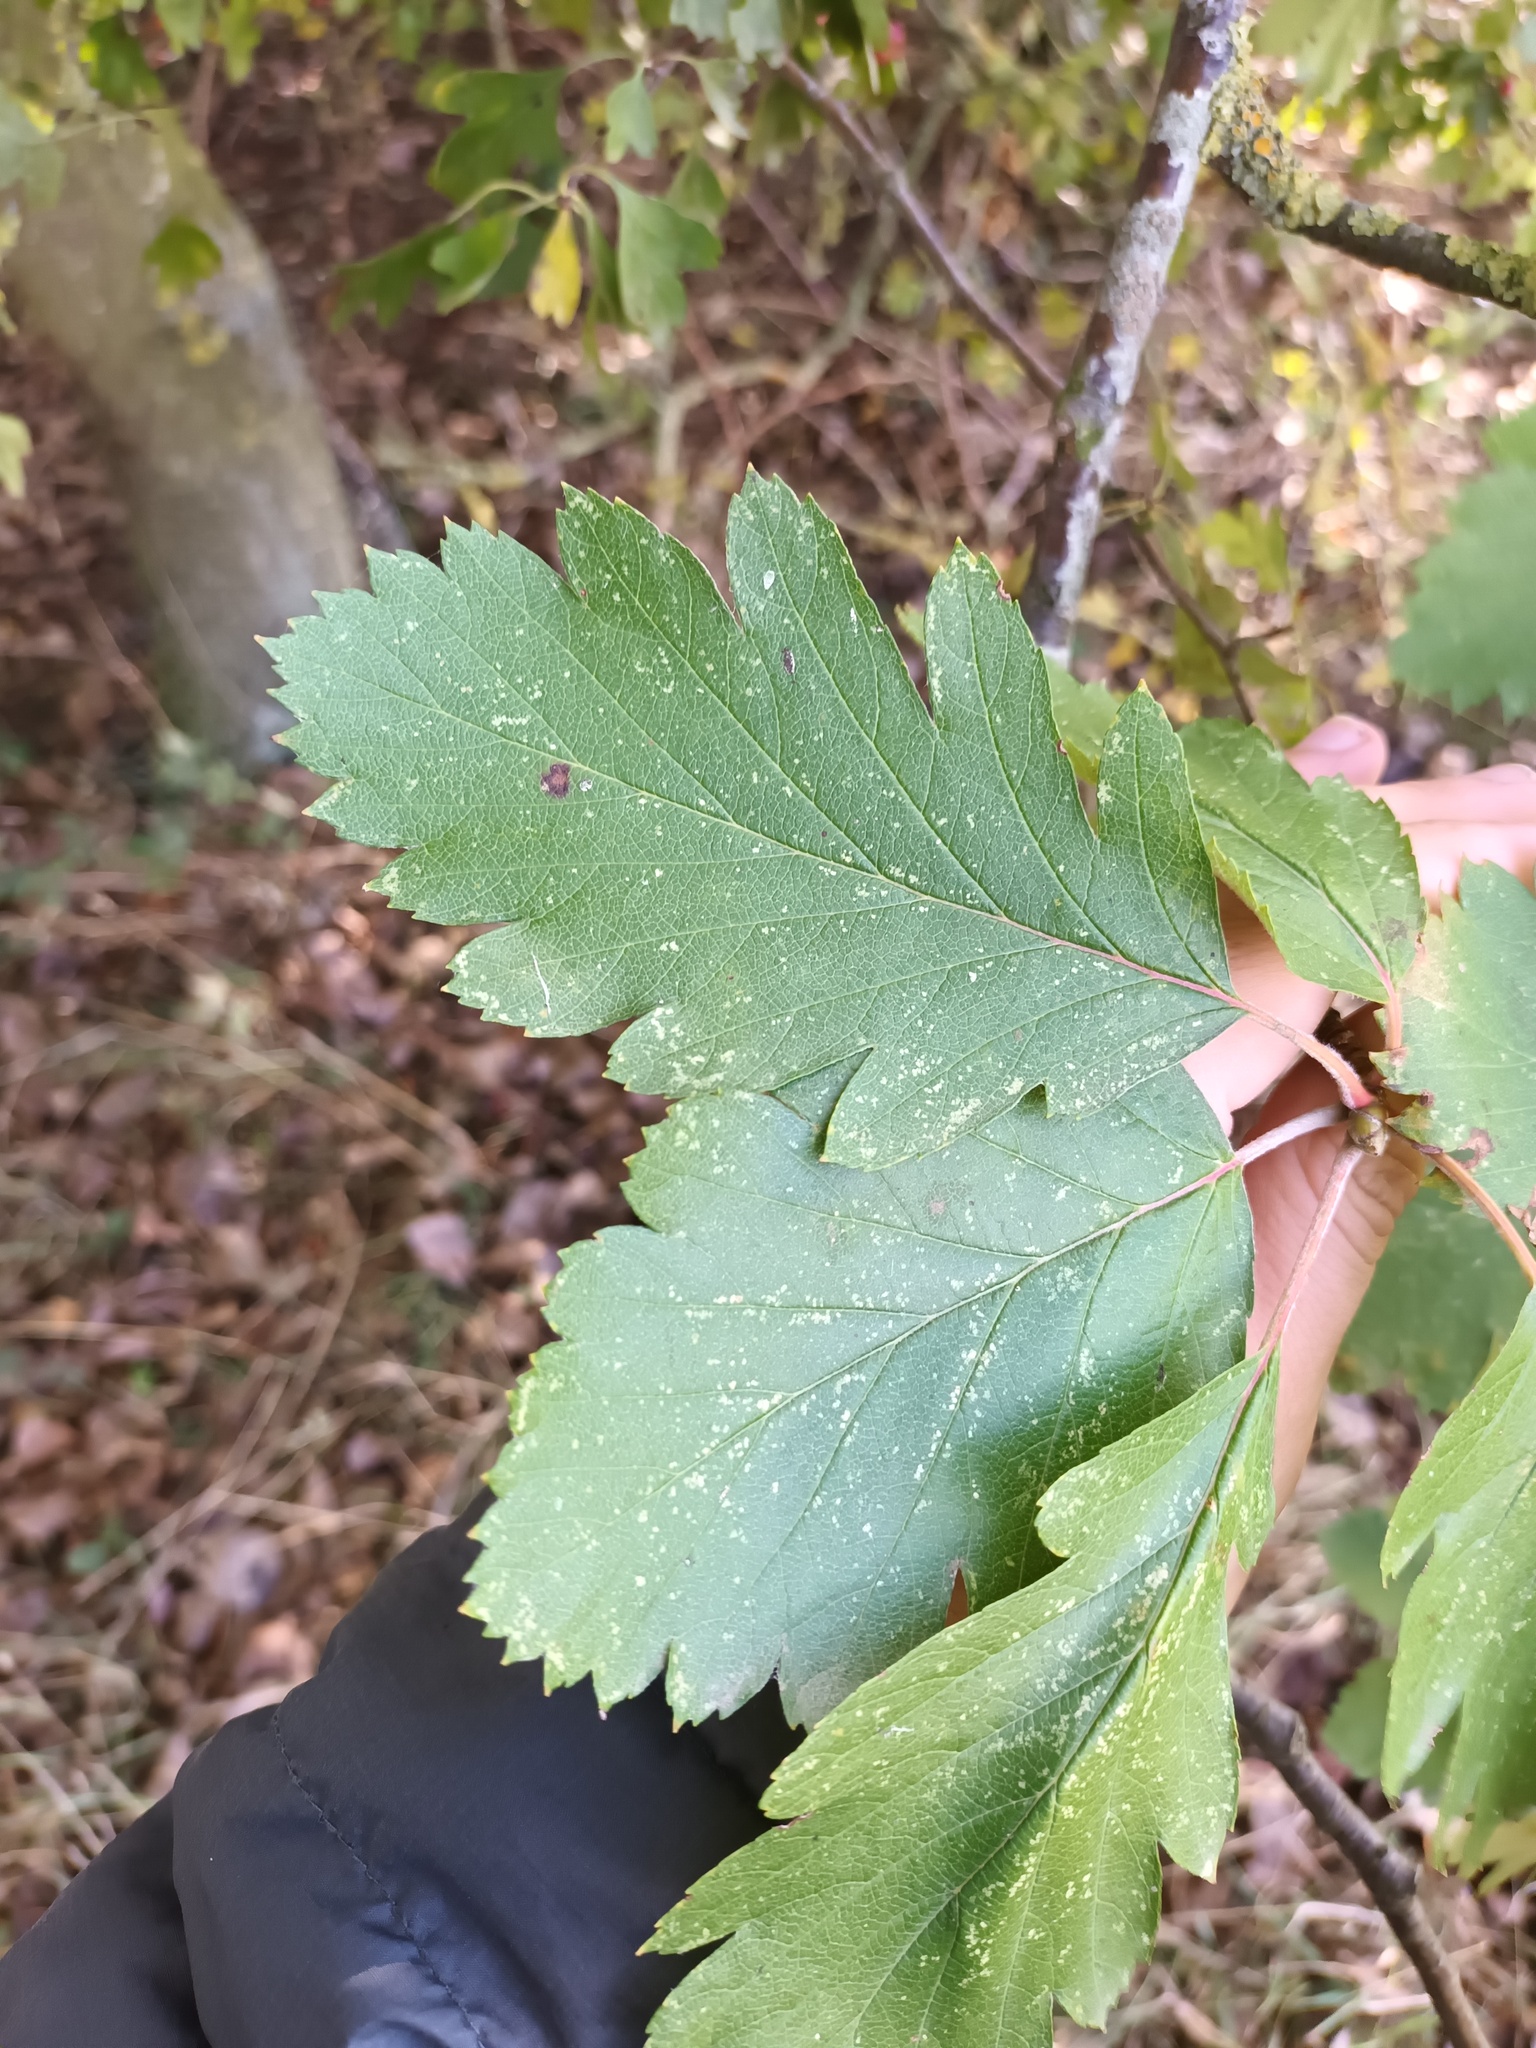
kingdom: Plantae
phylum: Tracheophyta
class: Magnoliopsida
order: Rosales
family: Rosaceae
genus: Scandosorbus
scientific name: Scandosorbus intermedia
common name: Swedish whitebeam
